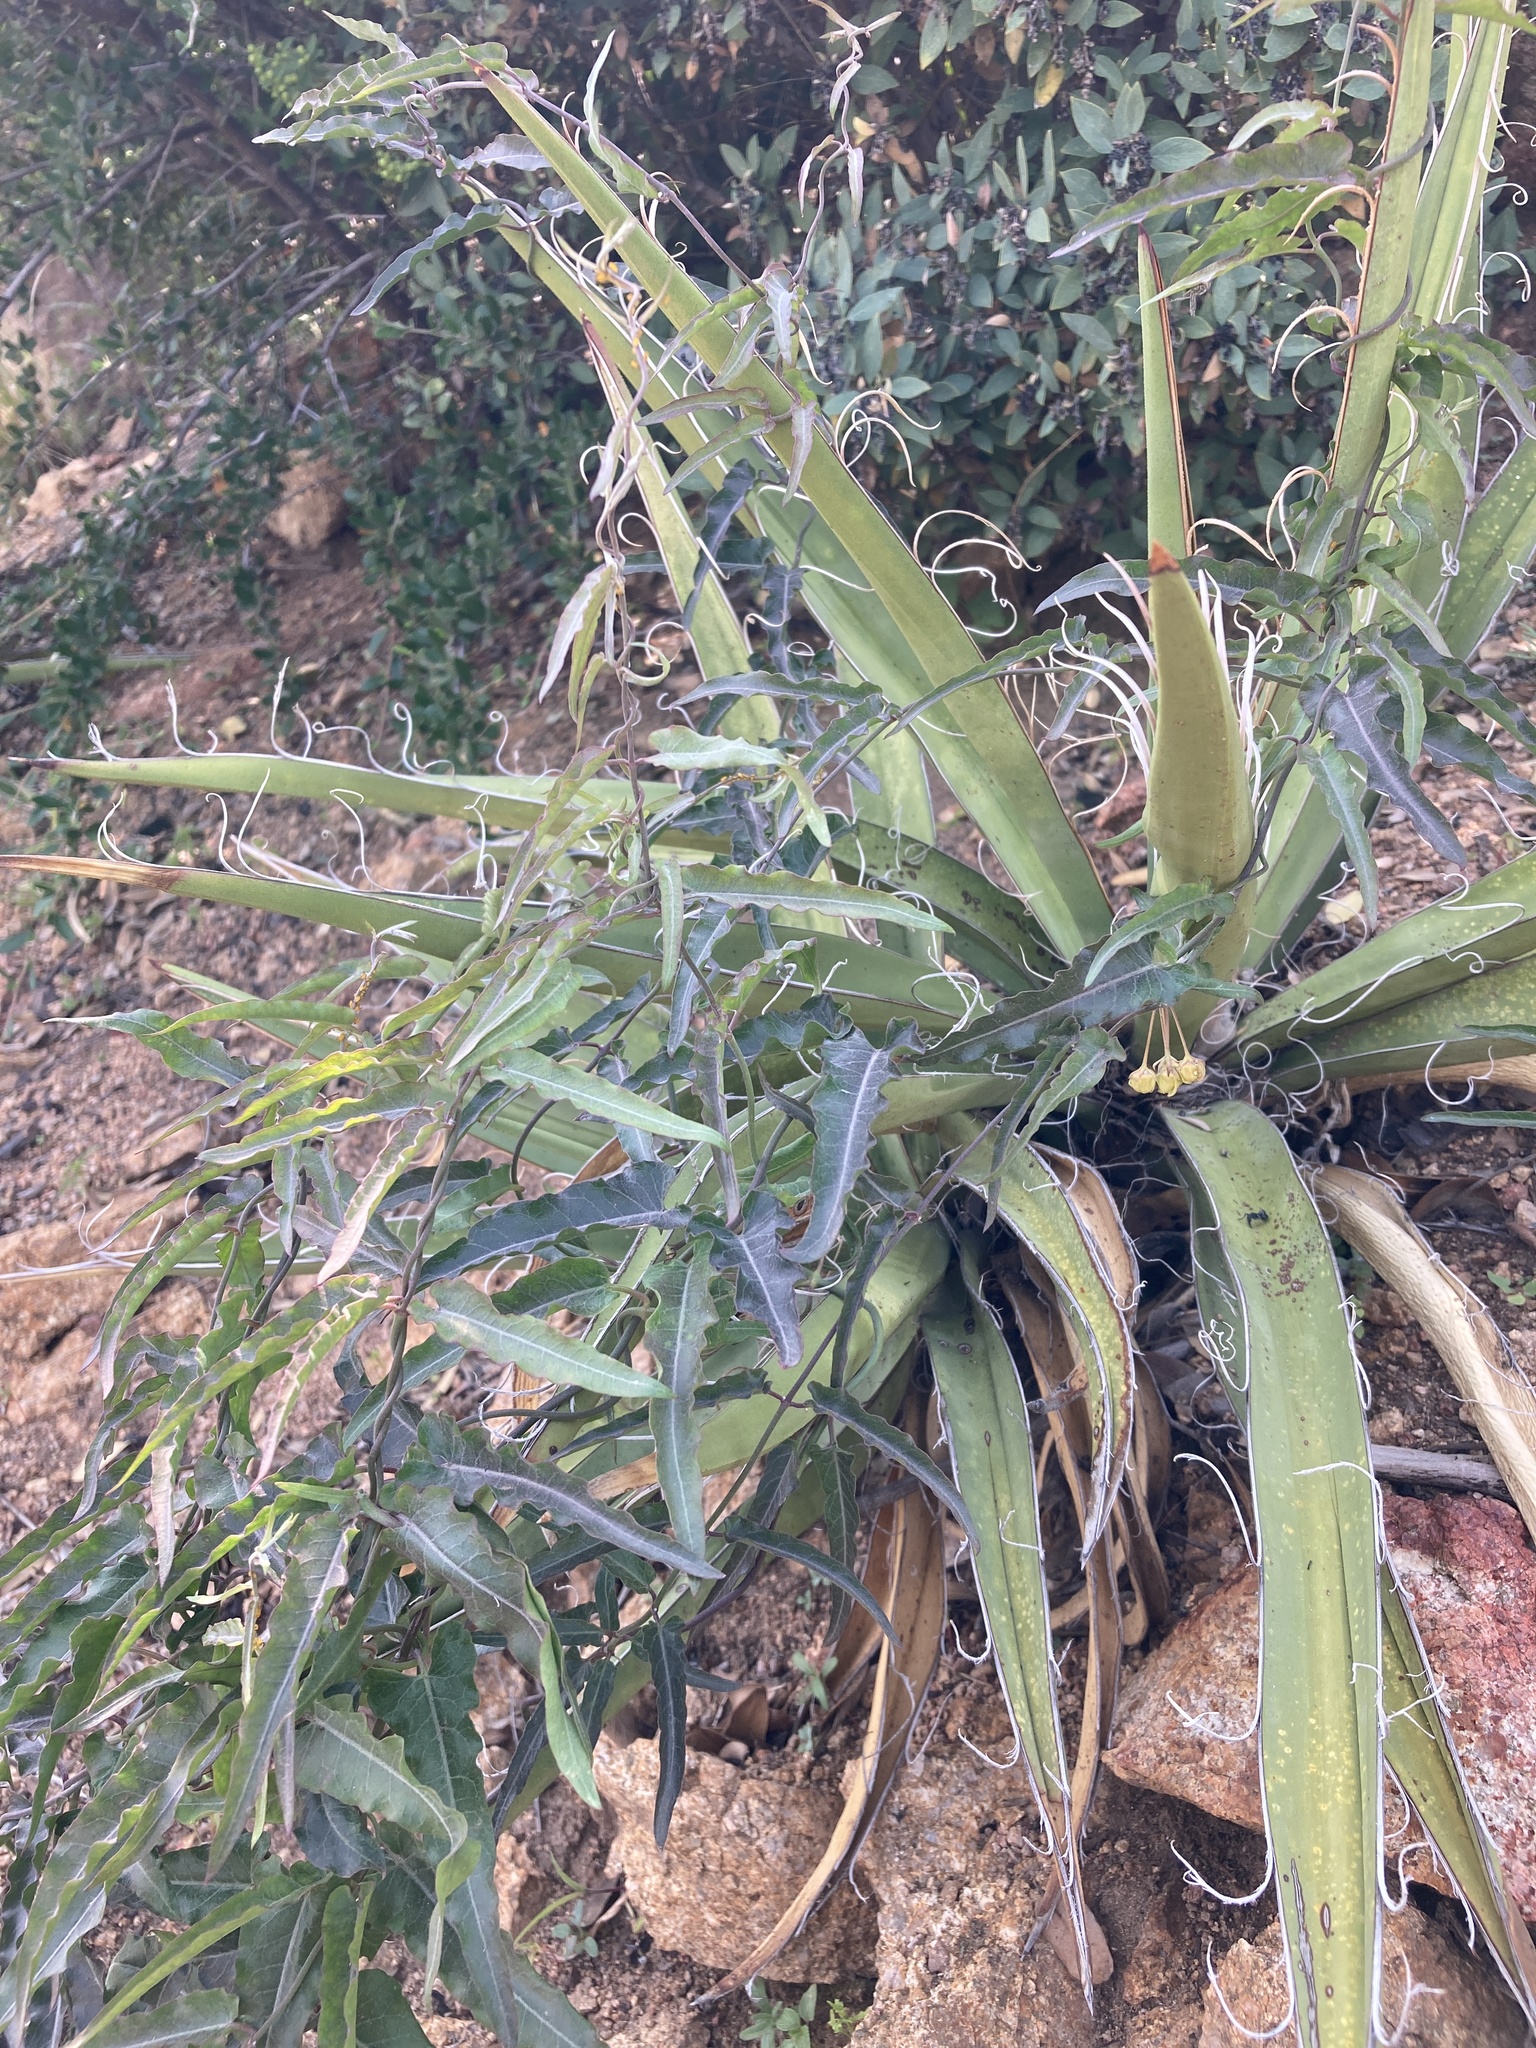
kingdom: Plantae
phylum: Tracheophyta
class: Magnoliopsida
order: Gentianales
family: Apocynaceae
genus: Funastrum
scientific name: Funastrum crispum
